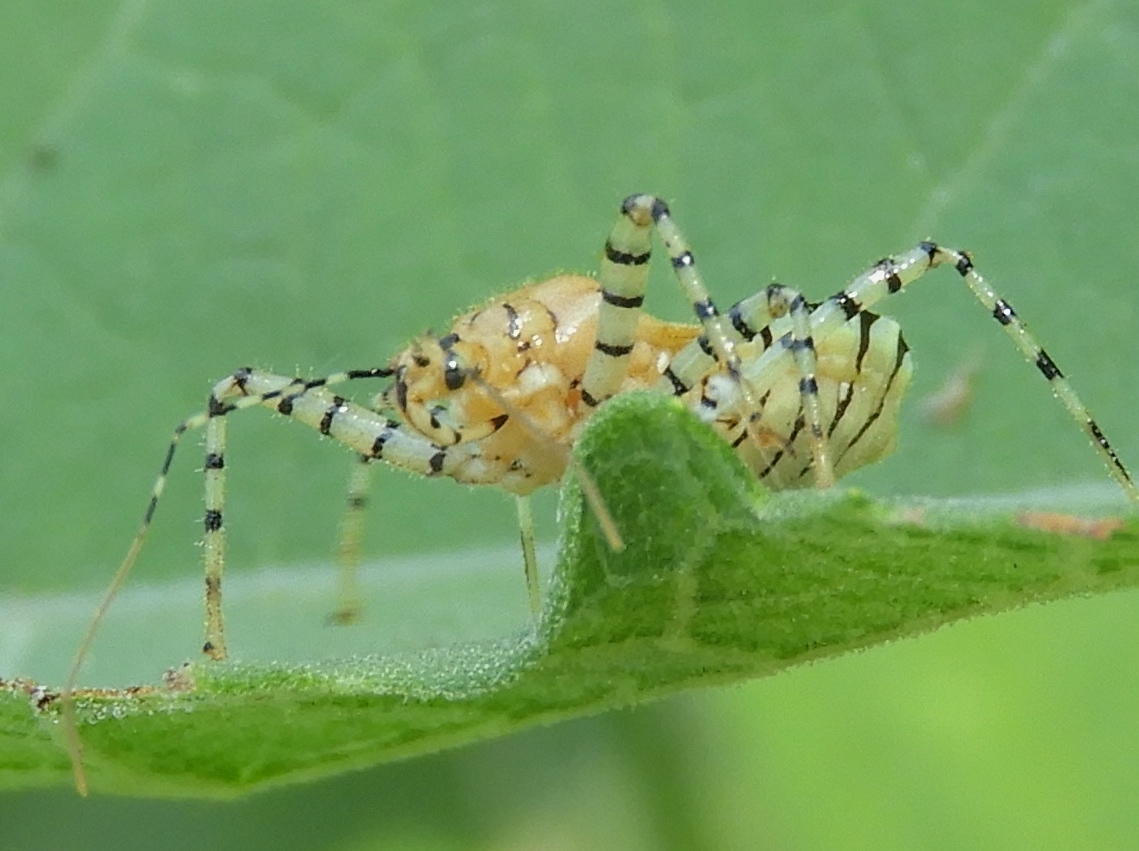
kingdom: Animalia
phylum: Arthropoda
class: Insecta
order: Hemiptera
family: Reduviidae
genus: Pselliopus
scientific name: Pselliopus
